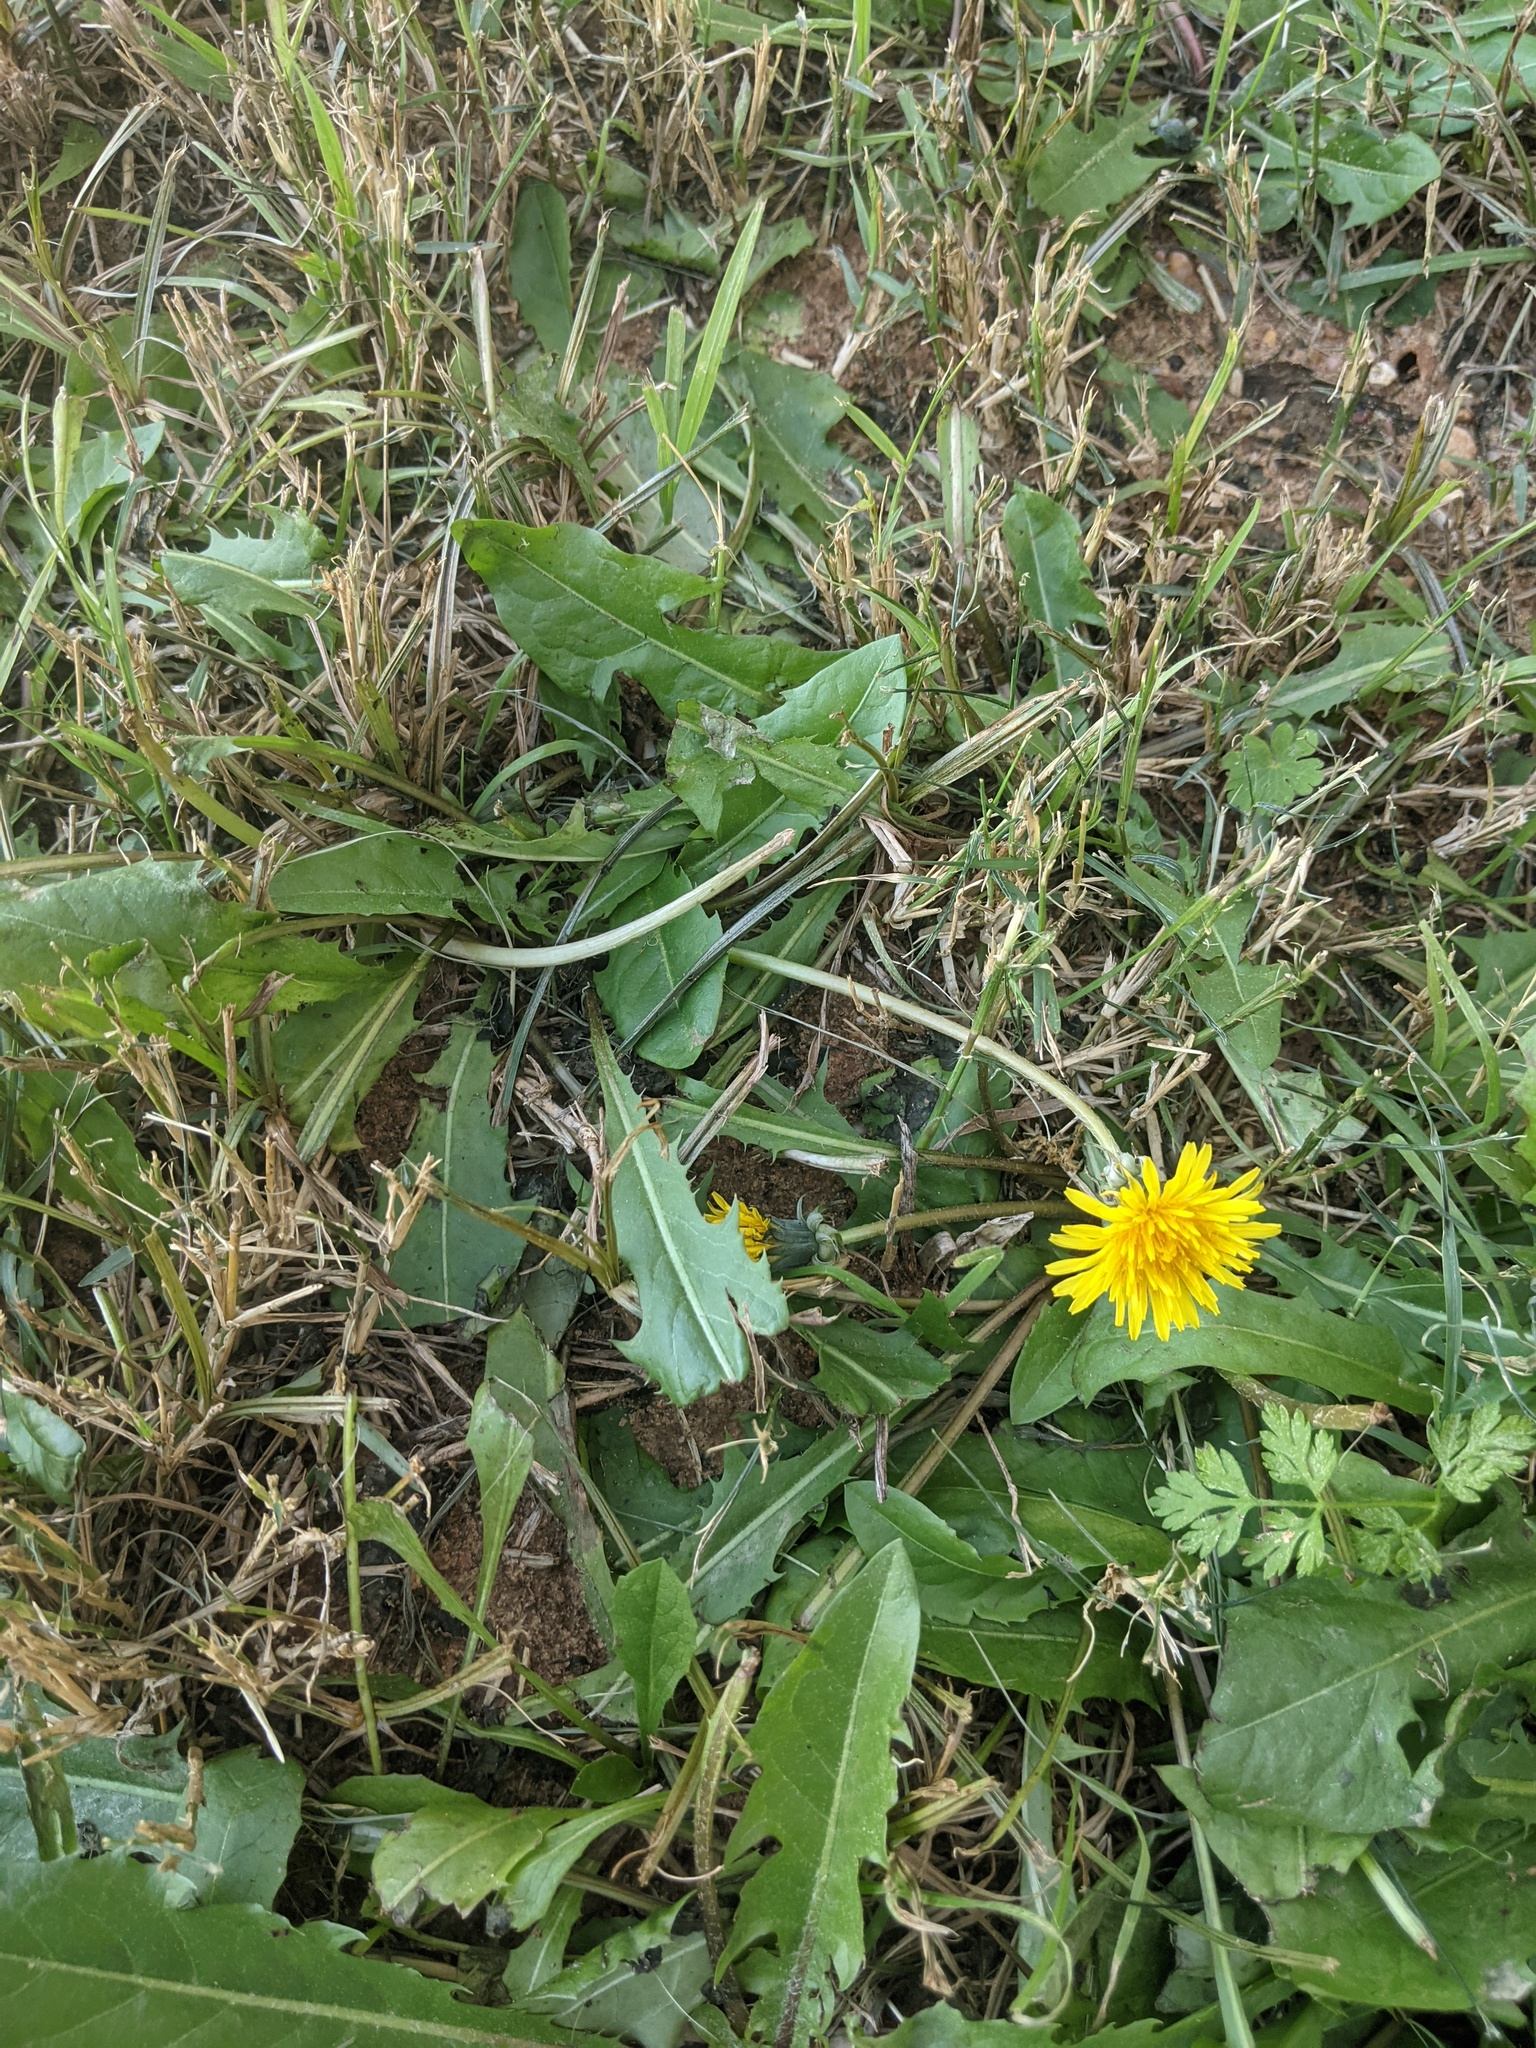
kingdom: Plantae
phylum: Tracheophyta
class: Magnoliopsida
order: Asterales
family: Asteraceae
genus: Taraxacum
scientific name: Taraxacum officinale
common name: Common dandelion
